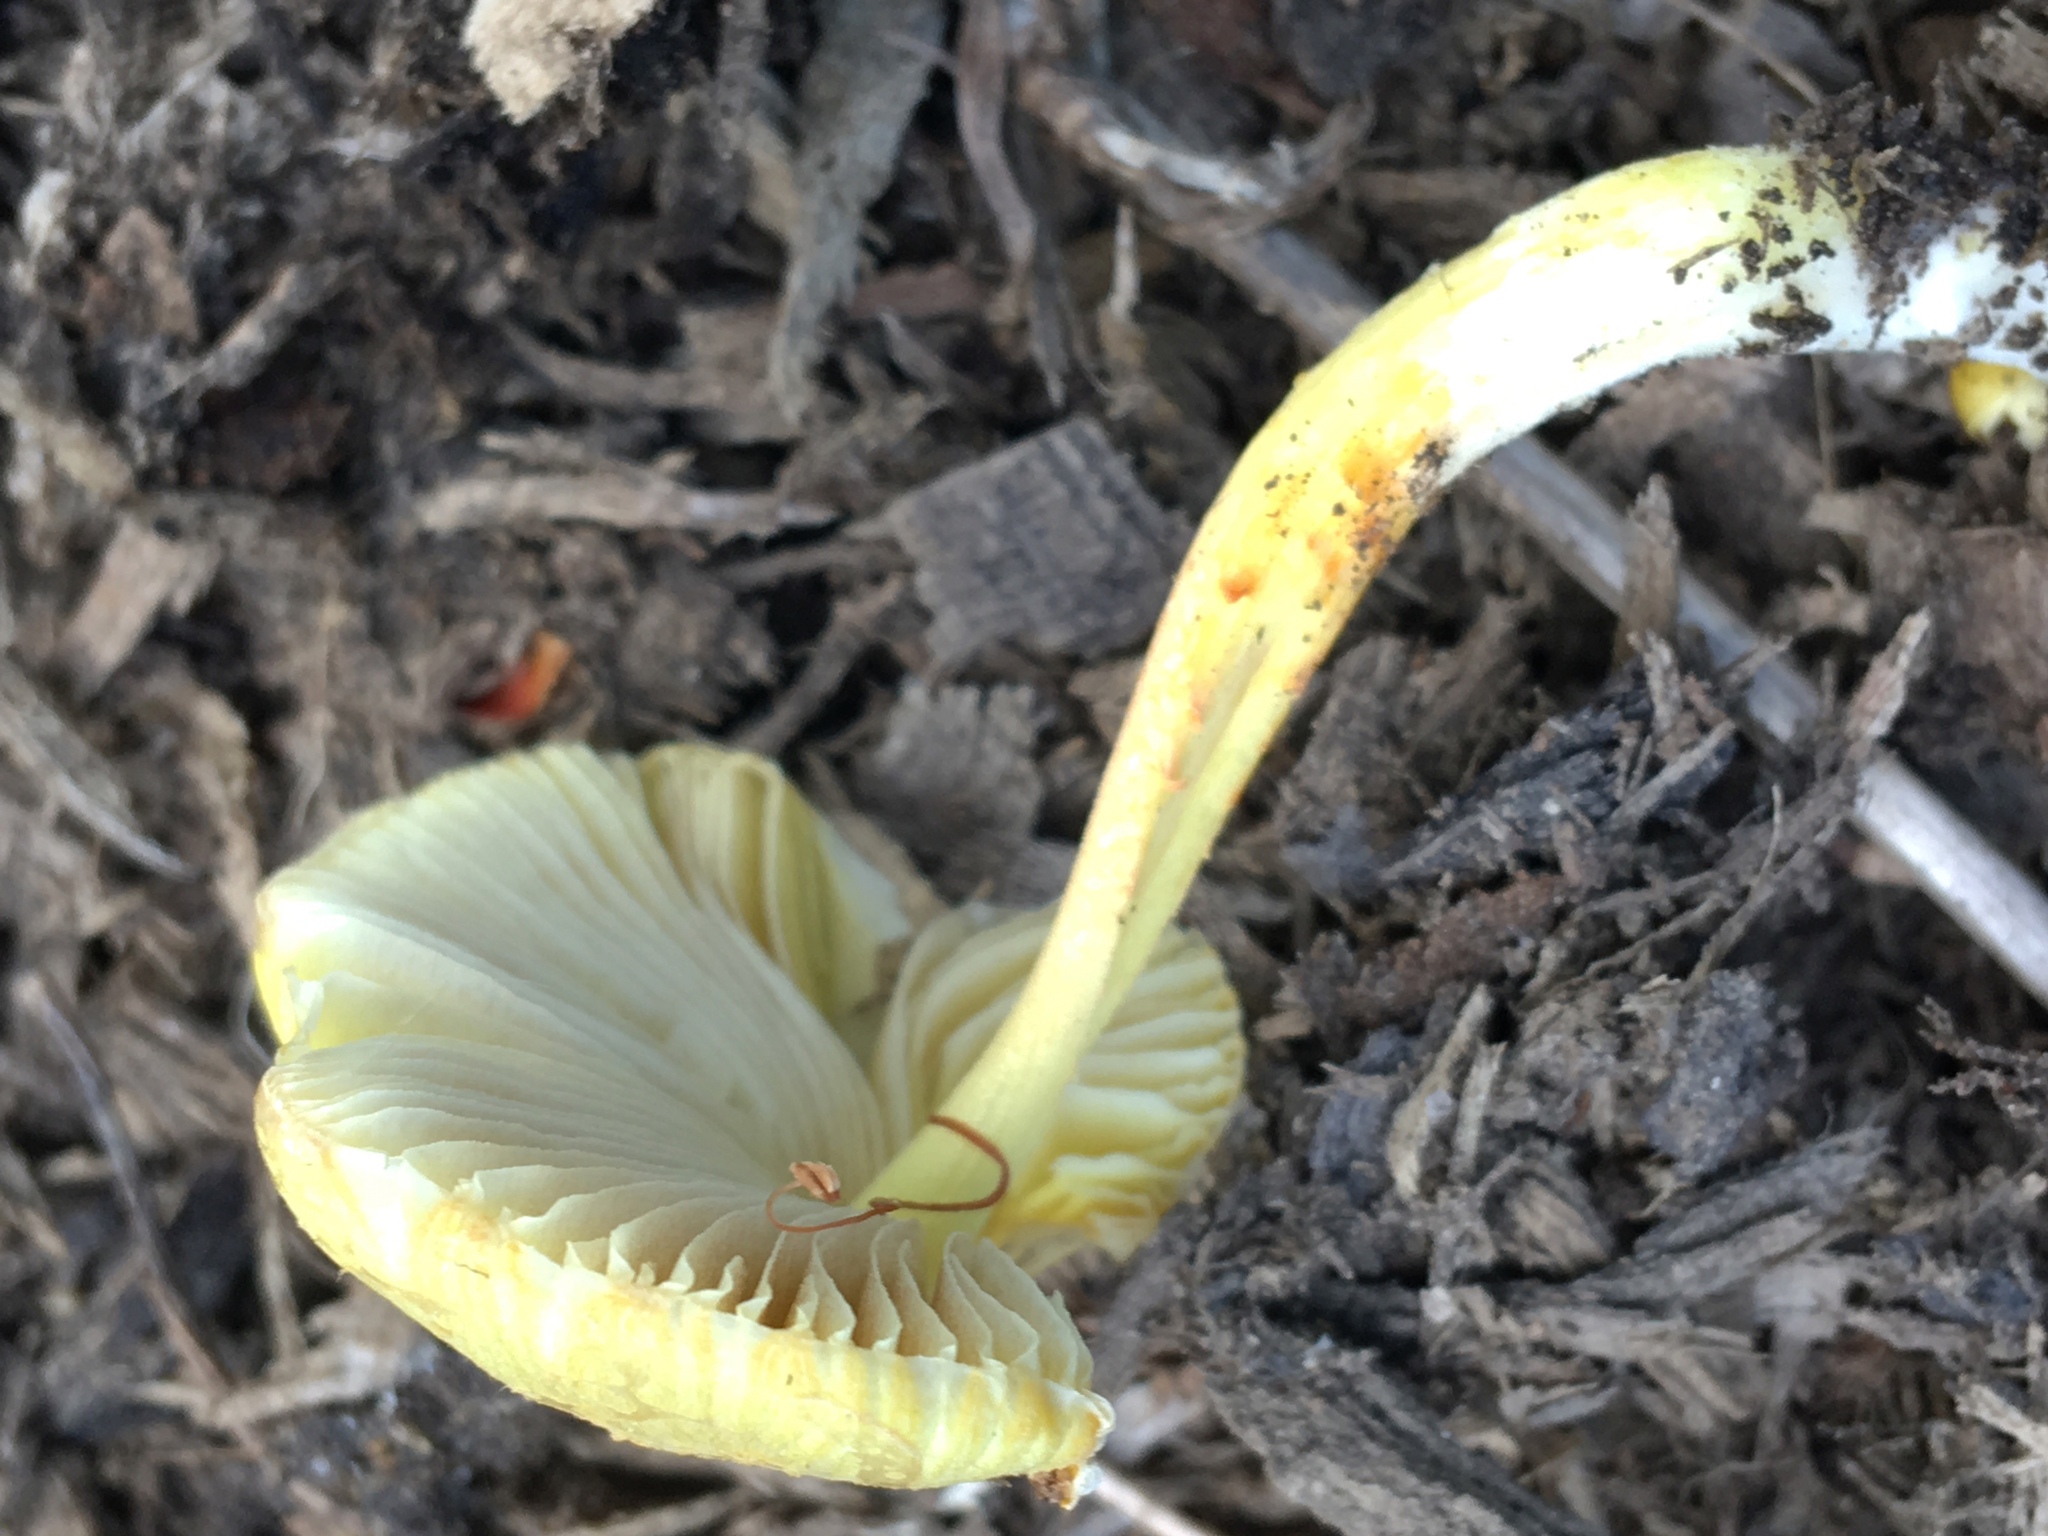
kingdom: Fungi
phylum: Basidiomycota
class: Agaricomycetes
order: Agaricales
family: Bolbitiaceae
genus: Bolbitius
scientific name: Bolbitius titubans
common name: Yellow fieldcap
